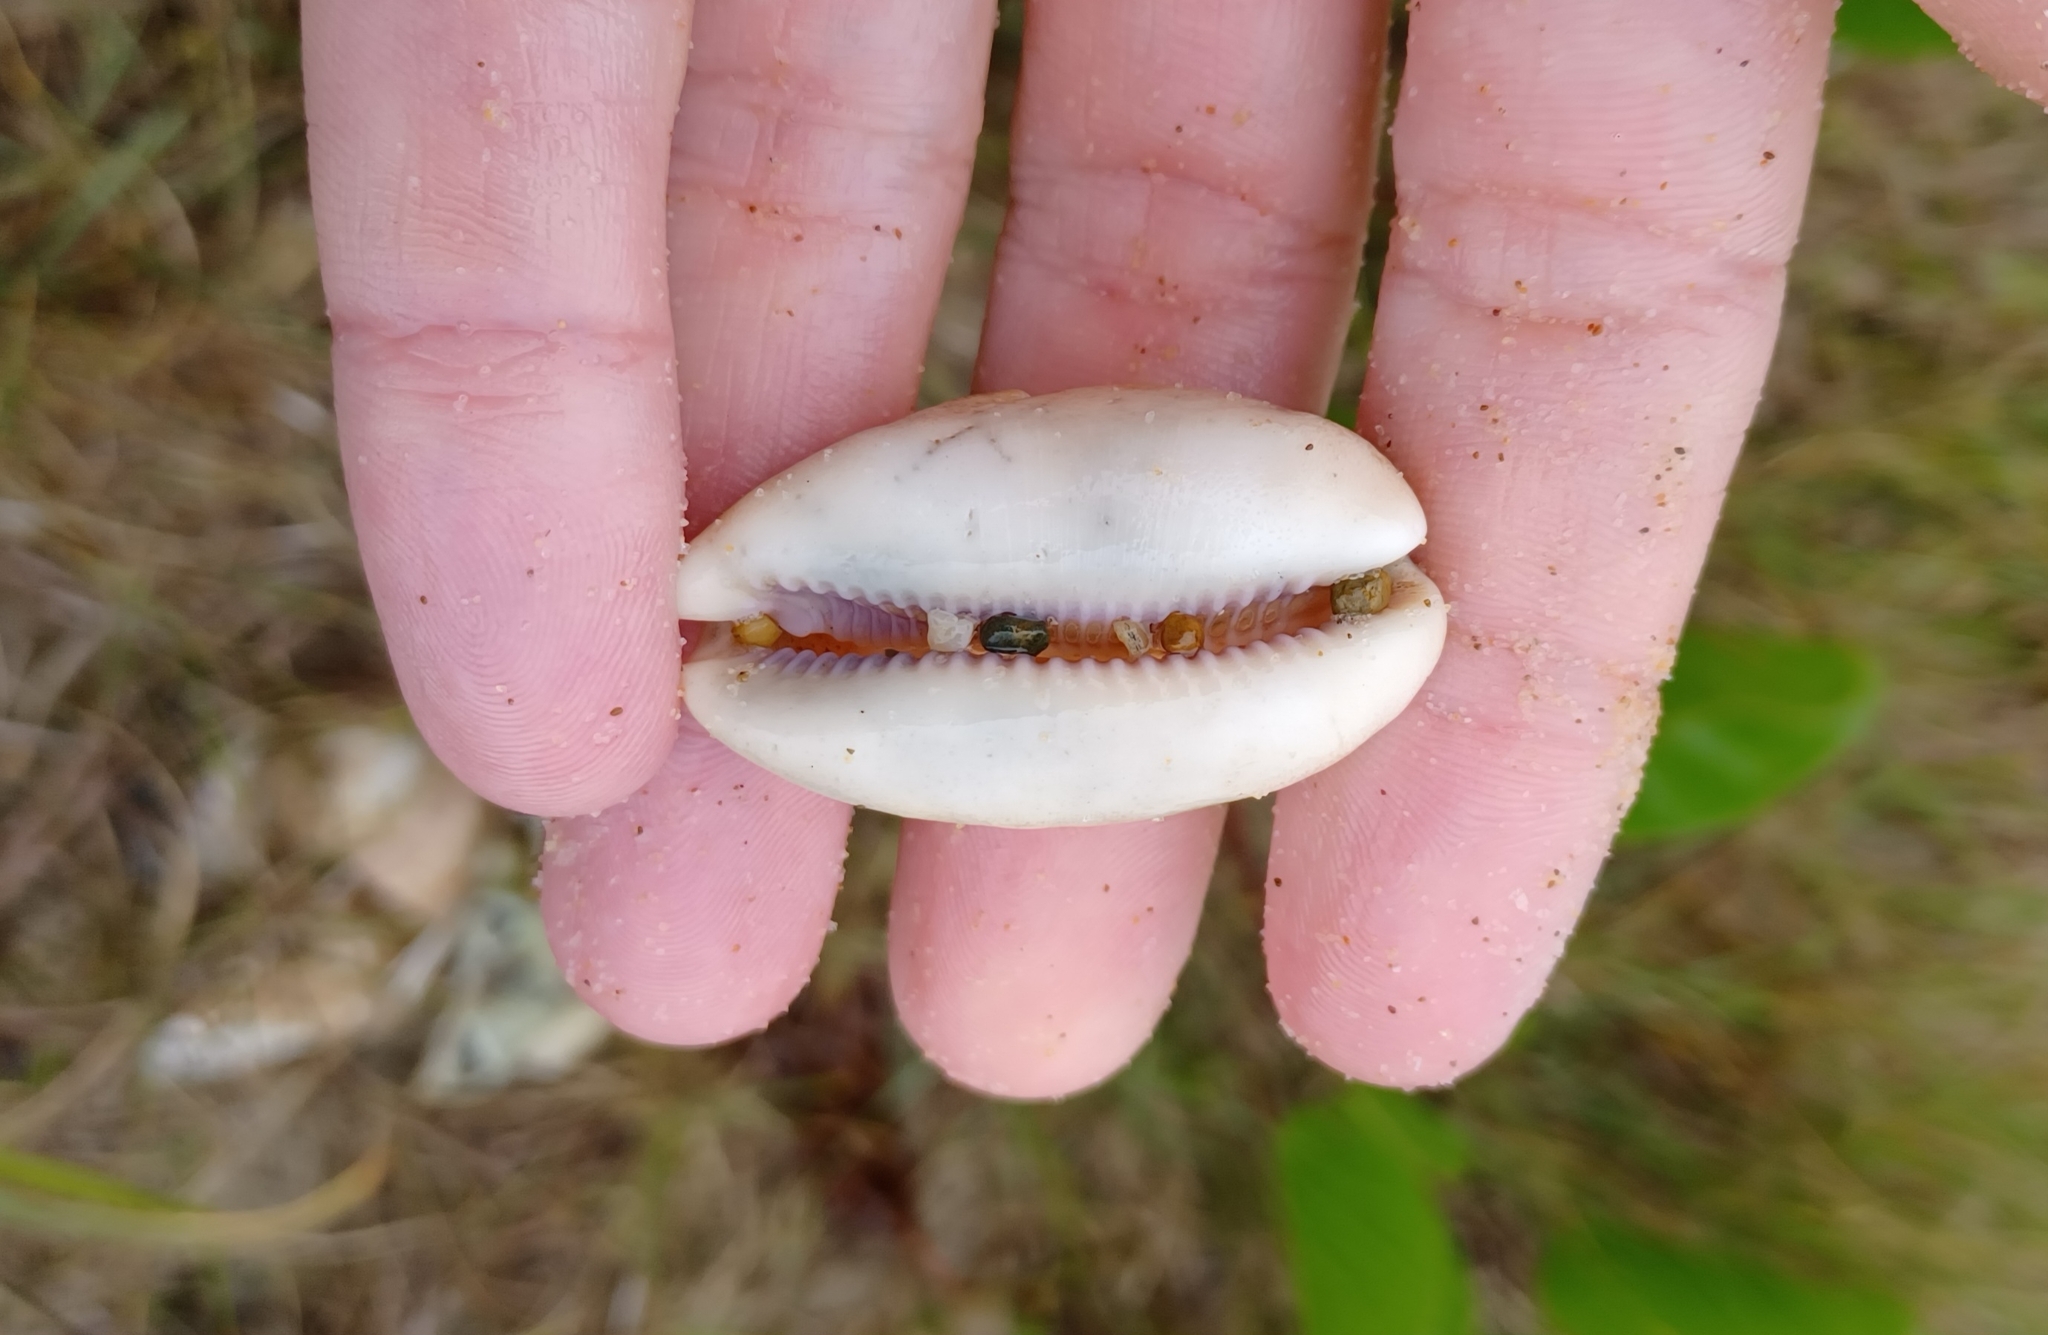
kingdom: Animalia
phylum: Mollusca
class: Gastropoda
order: Littorinimorpha
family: Cypraeidae
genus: Lyncina
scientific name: Lyncina carneola
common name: Purple-mouthed cowry
